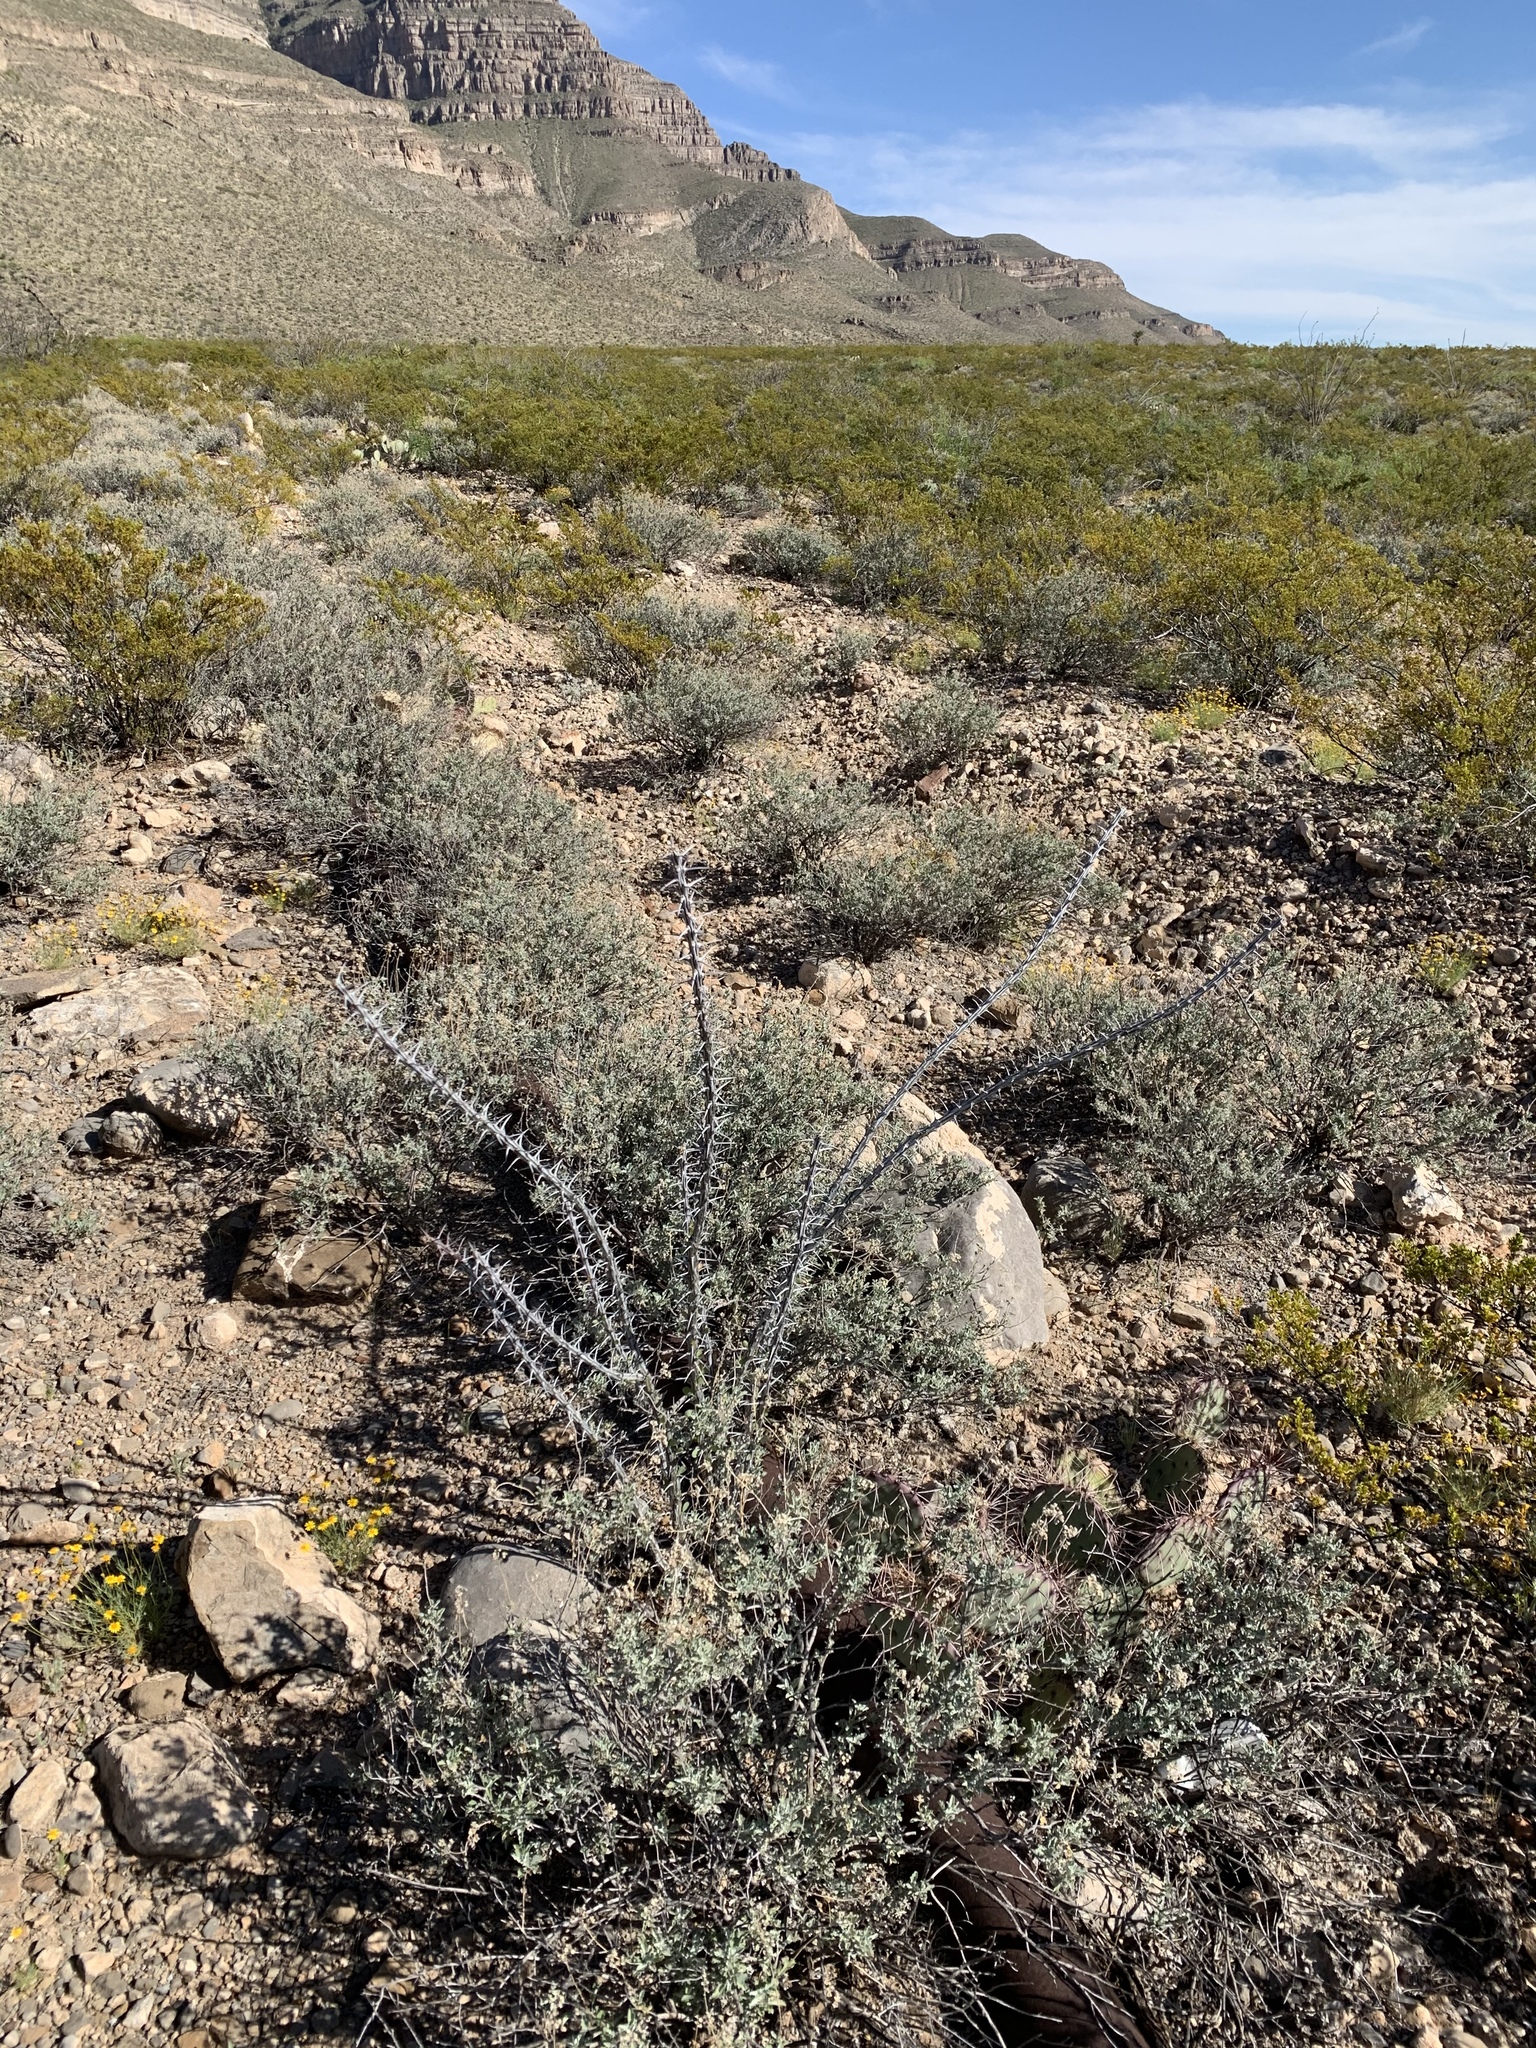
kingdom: Plantae
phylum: Tracheophyta
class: Magnoliopsida
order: Ericales
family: Fouquieriaceae
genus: Fouquieria
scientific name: Fouquieria splendens
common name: Vine-cactus
